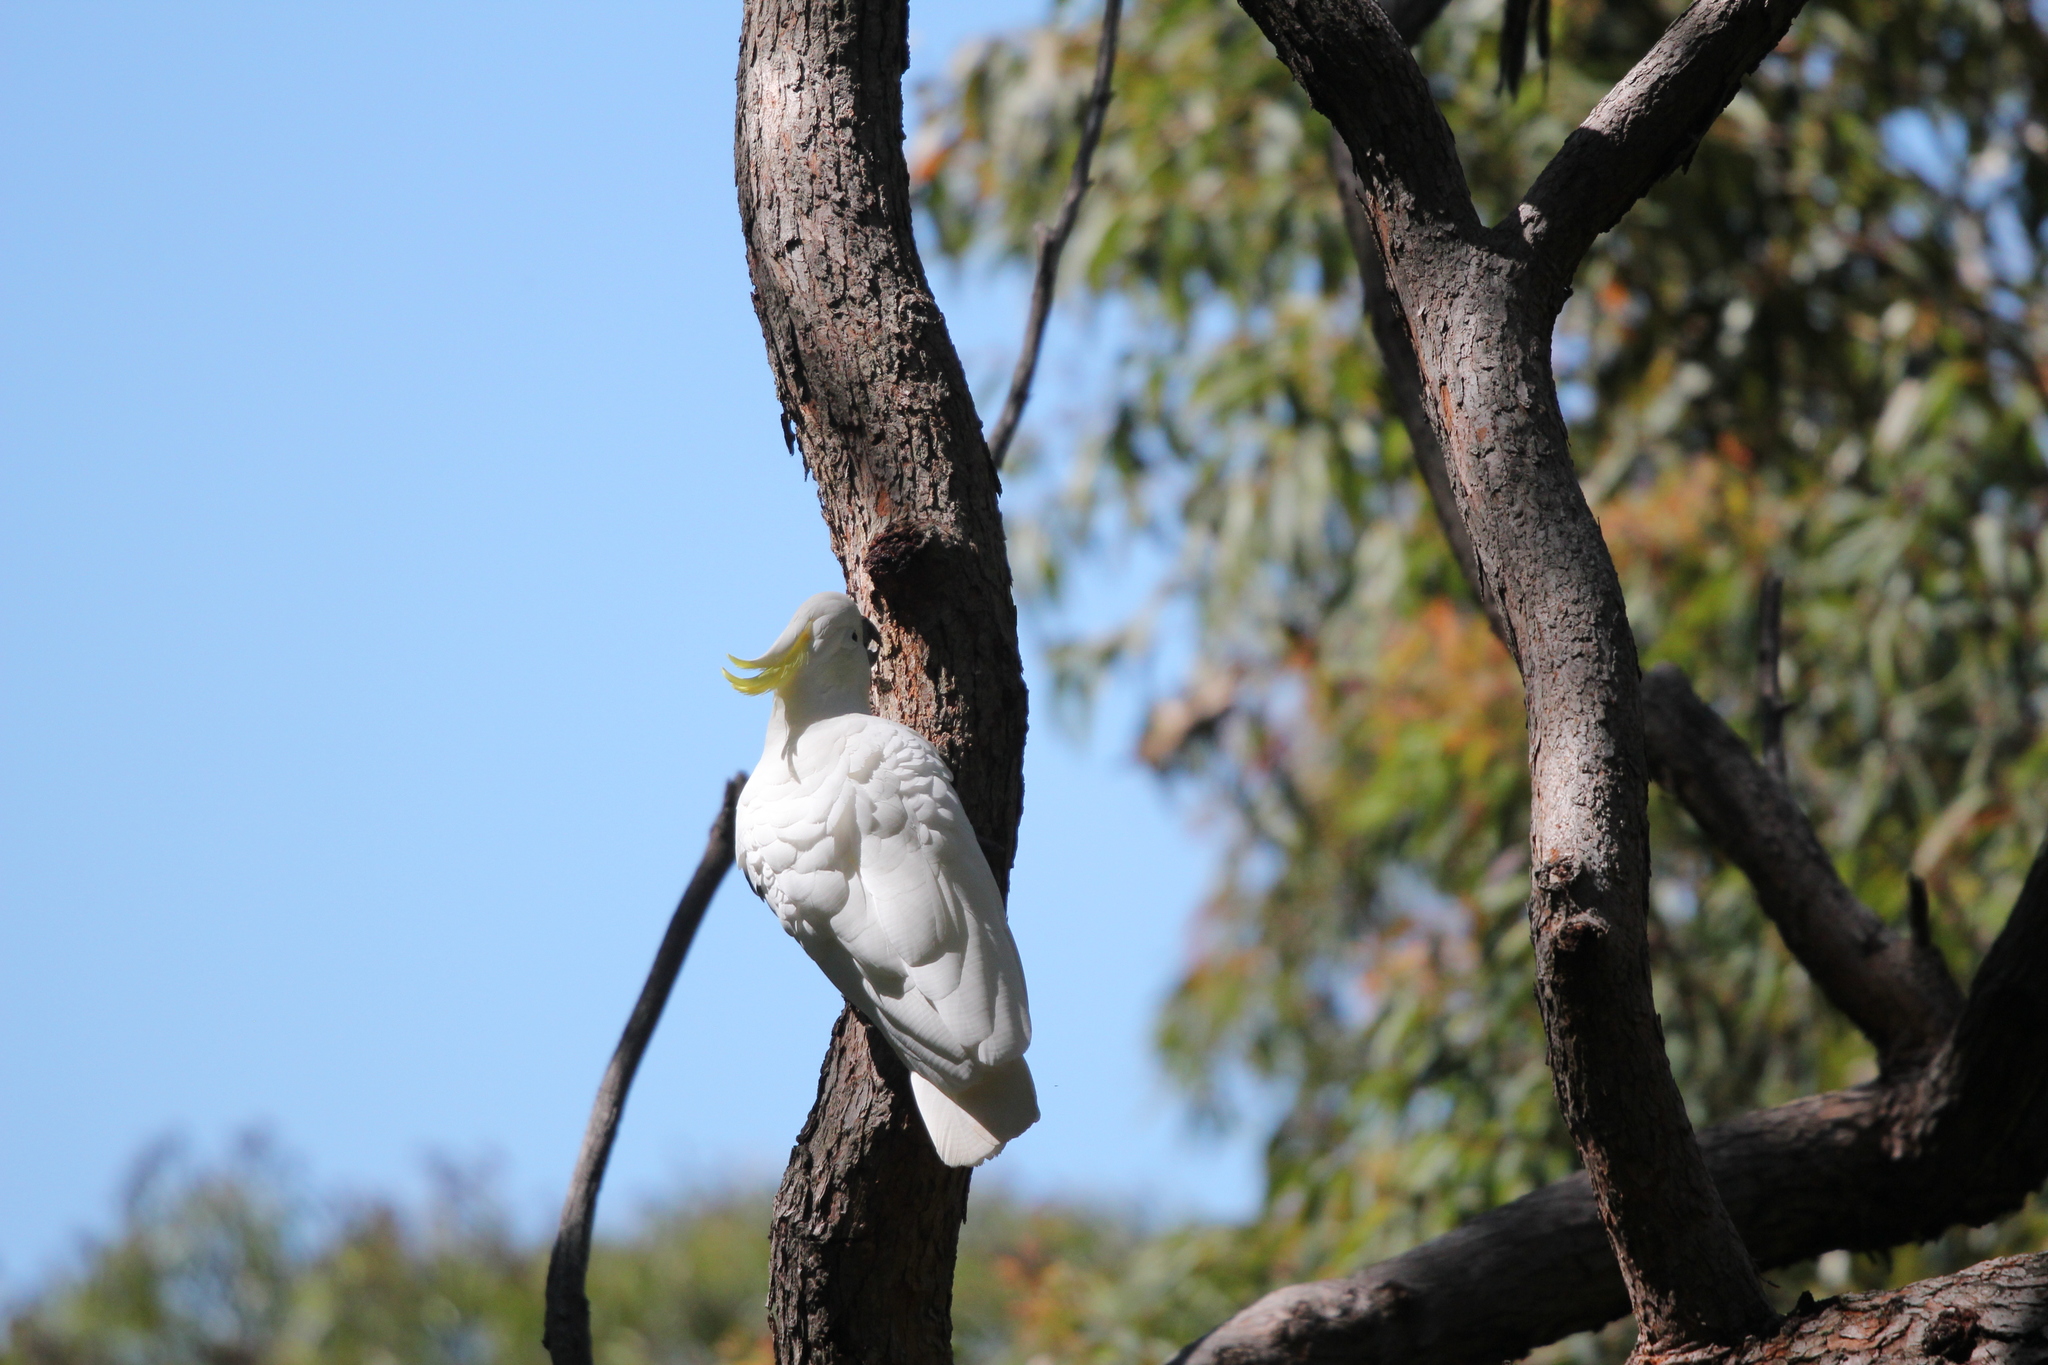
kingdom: Animalia
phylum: Chordata
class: Aves
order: Psittaciformes
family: Psittacidae
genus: Cacatua
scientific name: Cacatua galerita
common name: Sulphur-crested cockatoo
